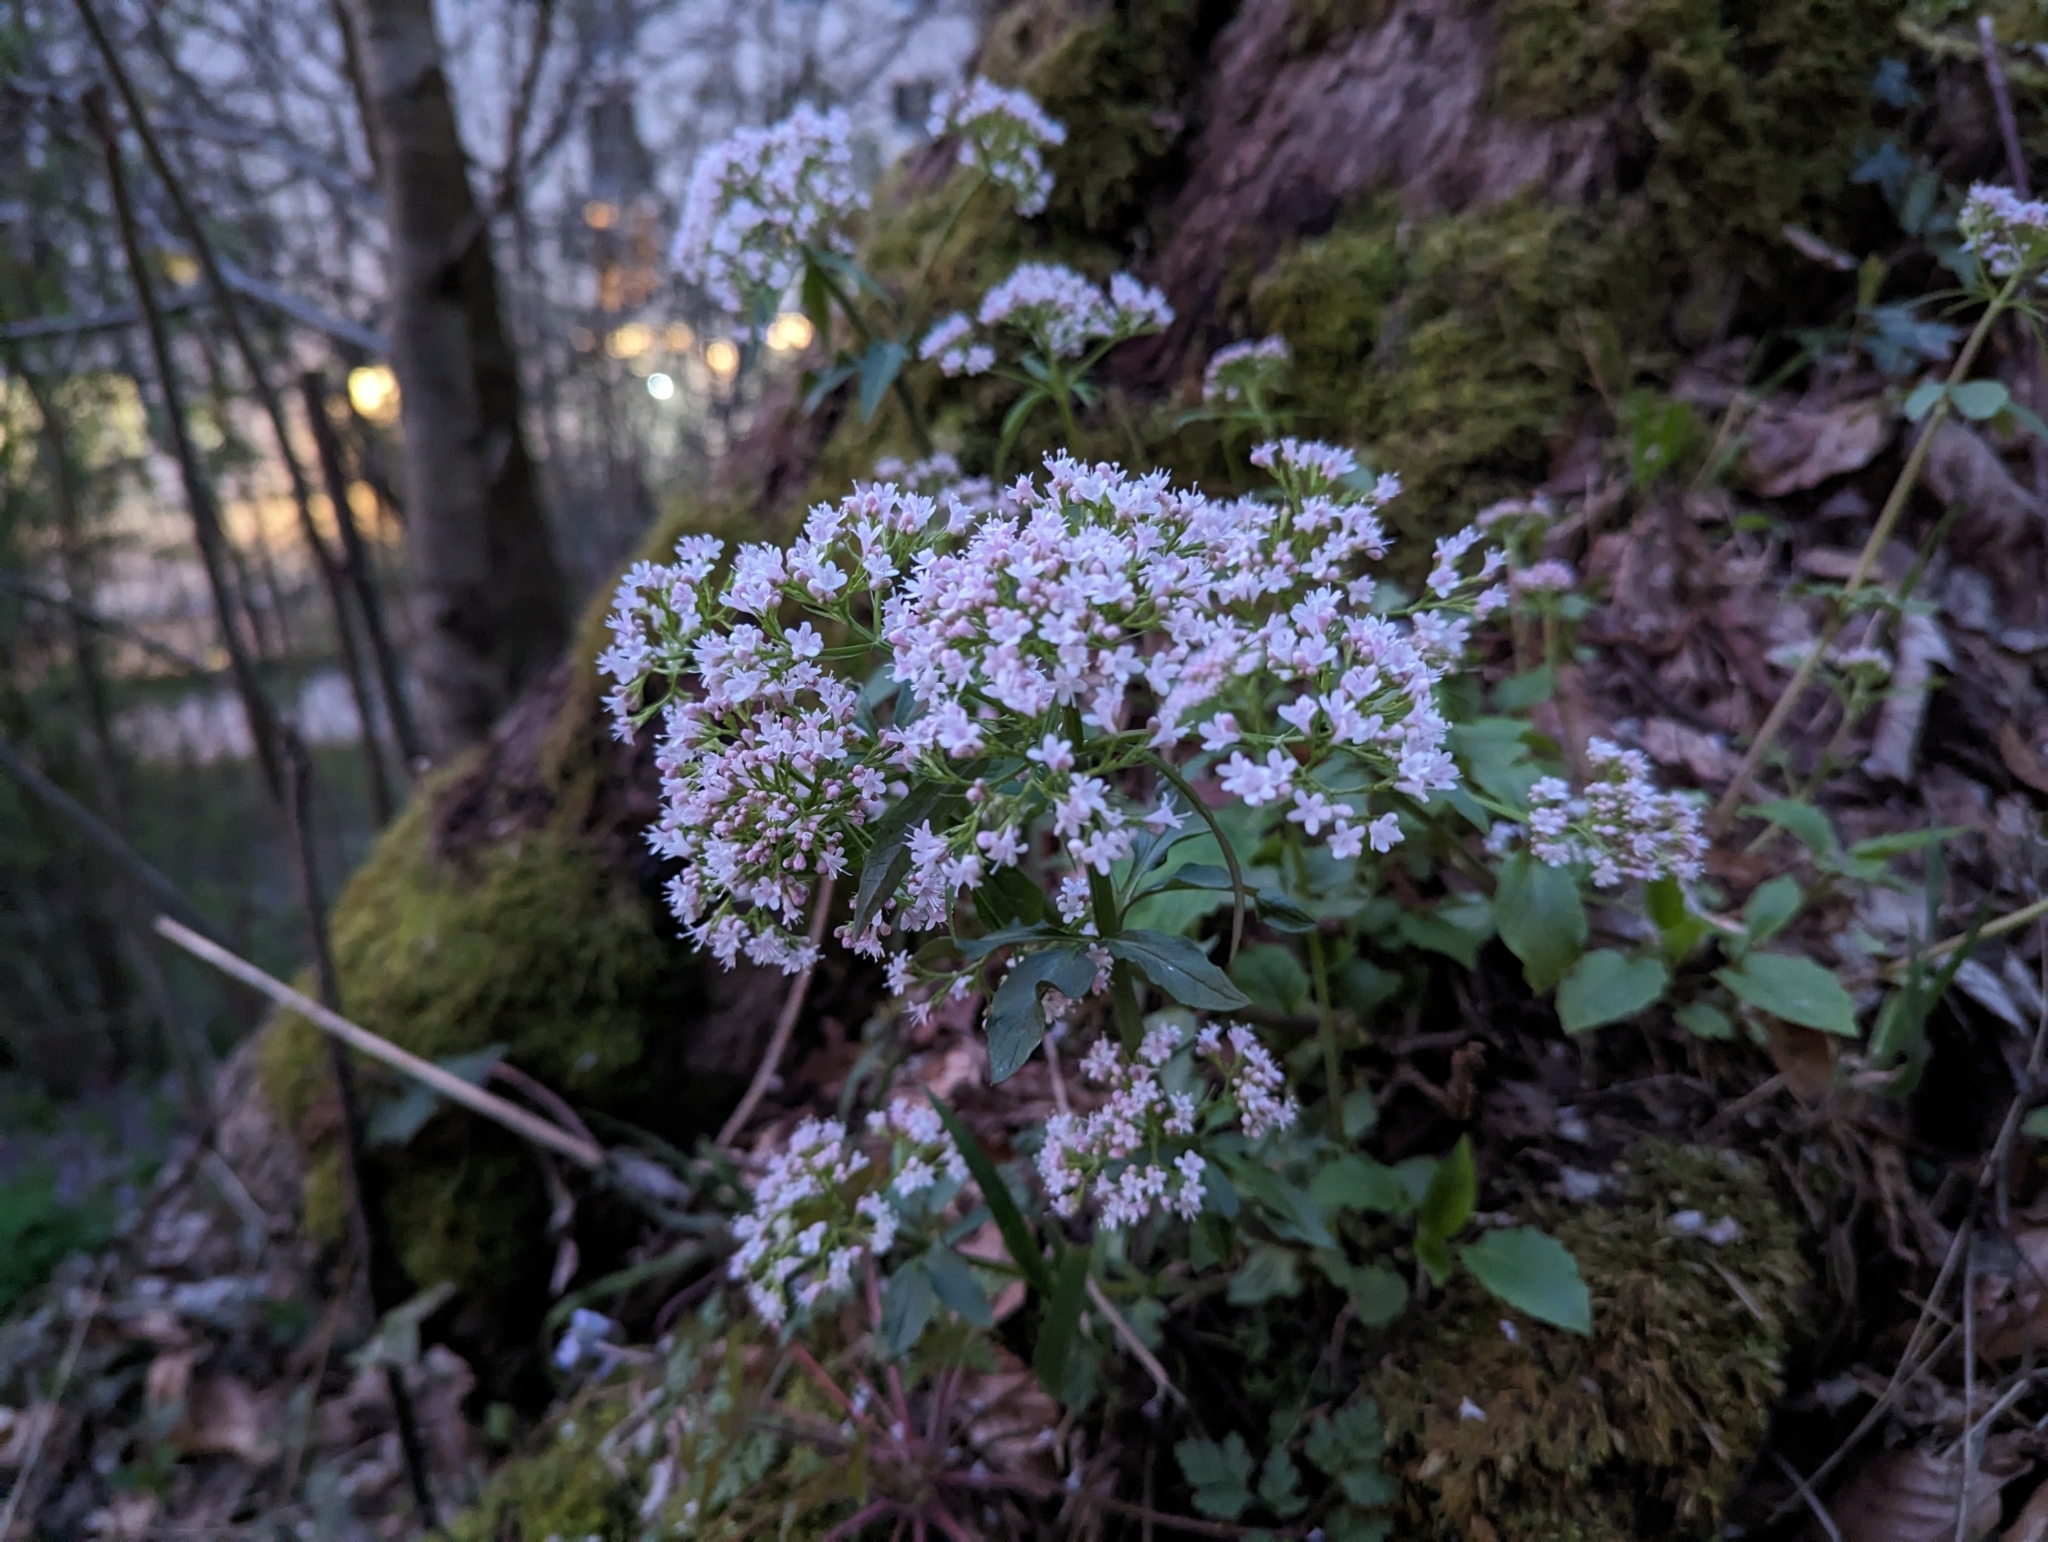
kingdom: Plantae
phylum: Tracheophyta
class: Magnoliopsida
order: Dipsacales
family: Caprifoliaceae
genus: Valeriana
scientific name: Valeriana tripteris
